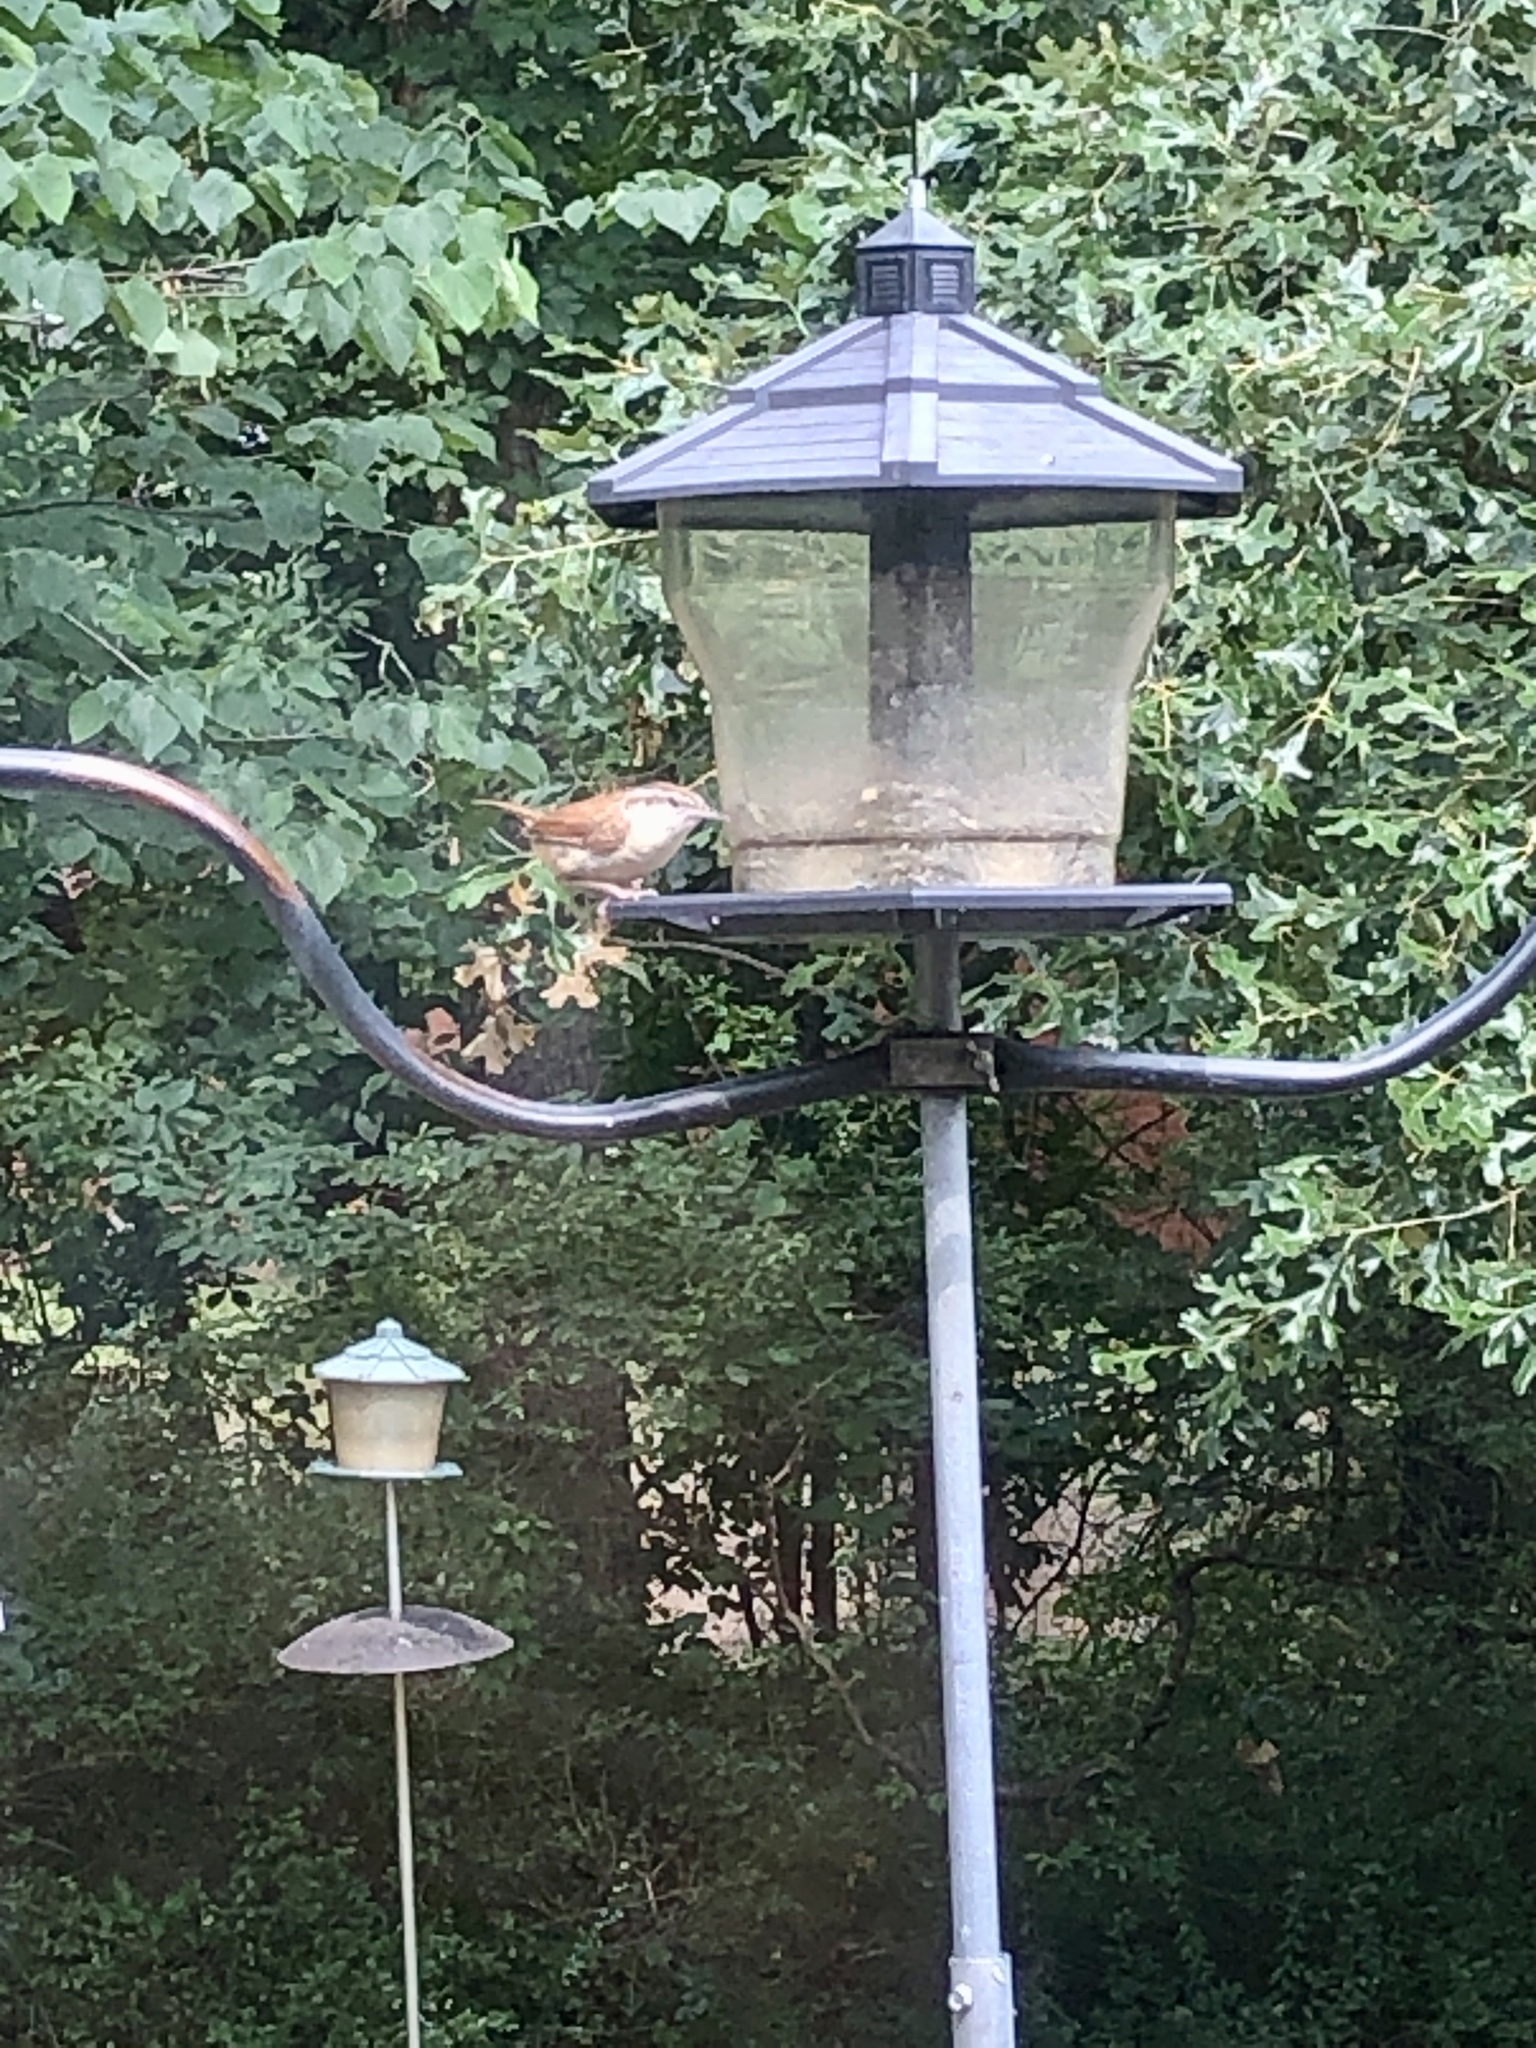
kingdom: Animalia
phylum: Chordata
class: Aves
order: Passeriformes
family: Troglodytidae
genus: Thryothorus
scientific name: Thryothorus ludovicianus
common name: Carolina wren
